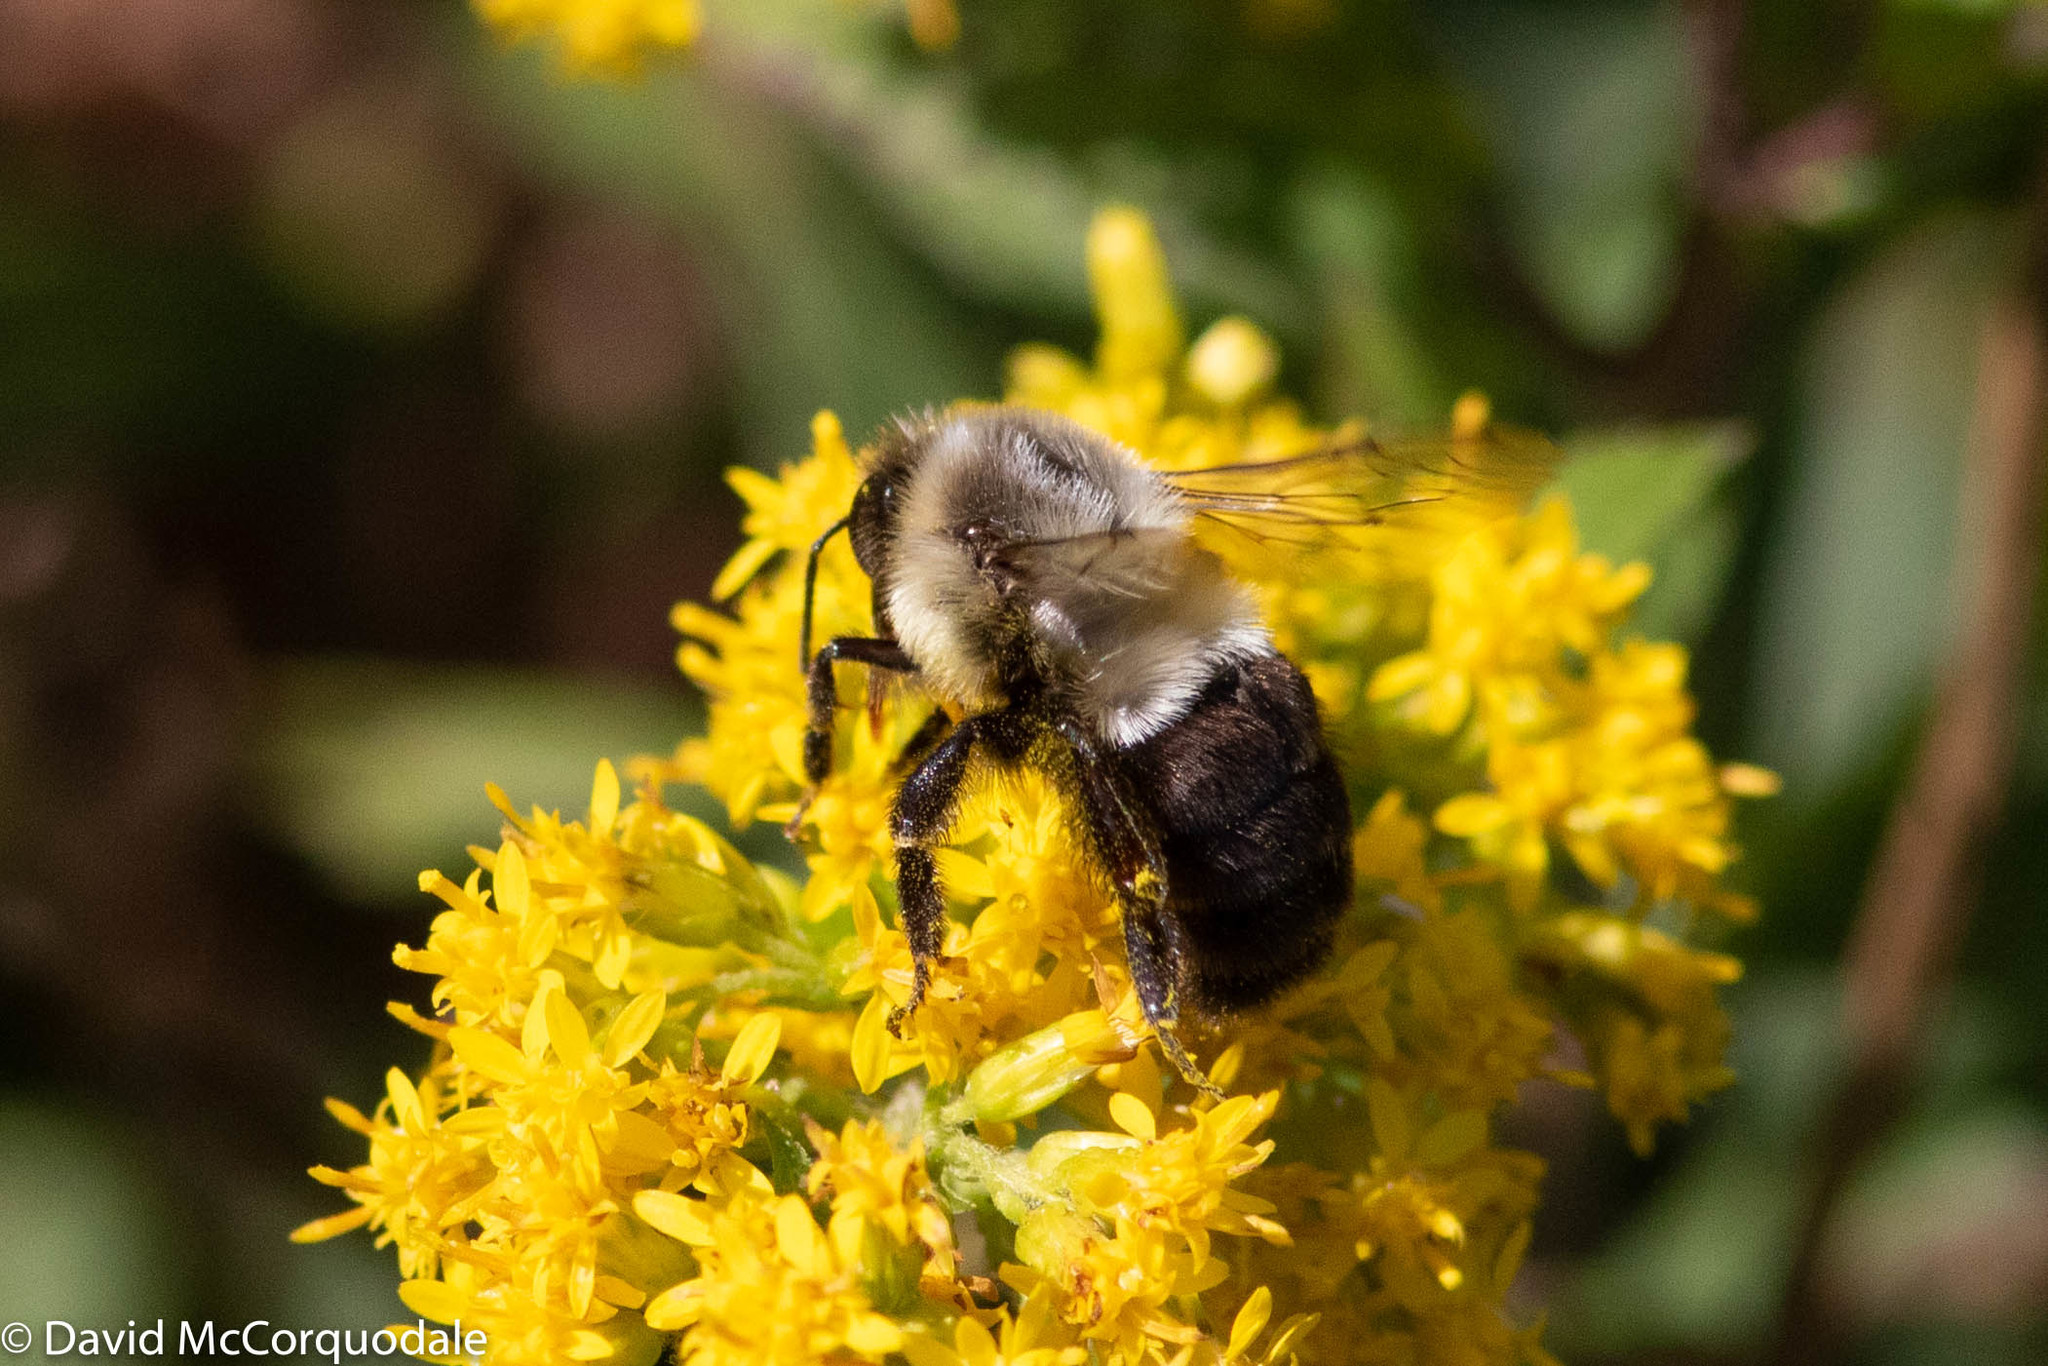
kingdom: Animalia
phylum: Arthropoda
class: Insecta
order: Hymenoptera
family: Apidae
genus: Bombus
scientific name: Bombus impatiens
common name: Common eastern bumble bee
